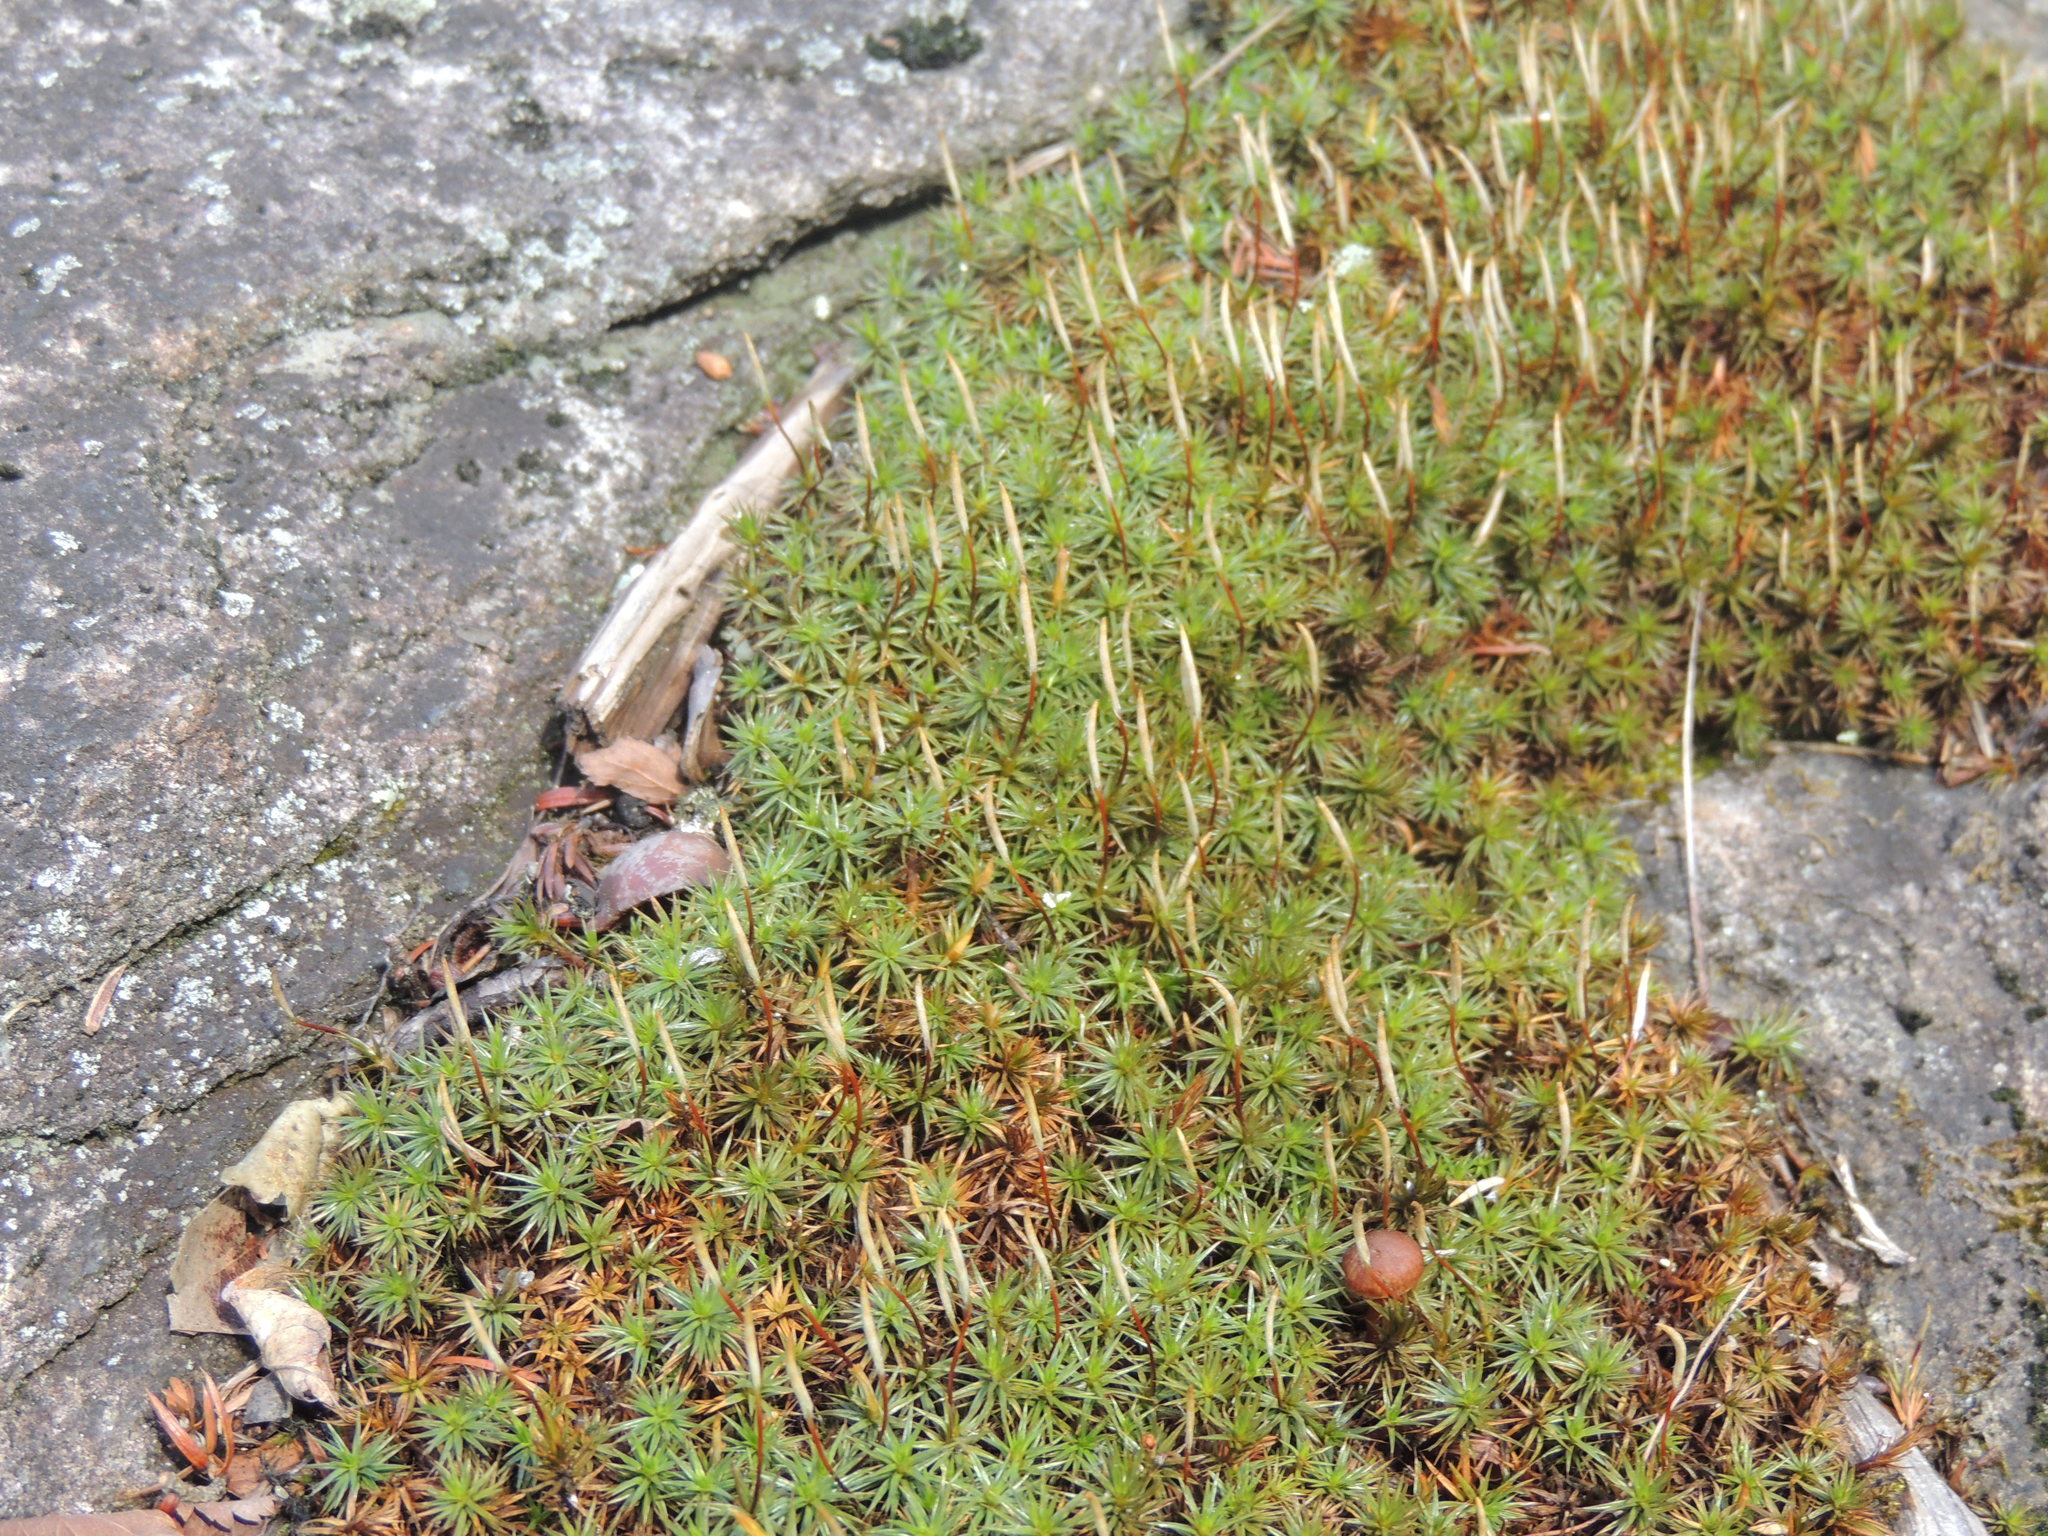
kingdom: Plantae
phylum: Bryophyta
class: Polytrichopsida
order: Polytrichales
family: Polytrichaceae
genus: Polytrichum
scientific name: Polytrichum juniperinum
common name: Juniper haircap moss
